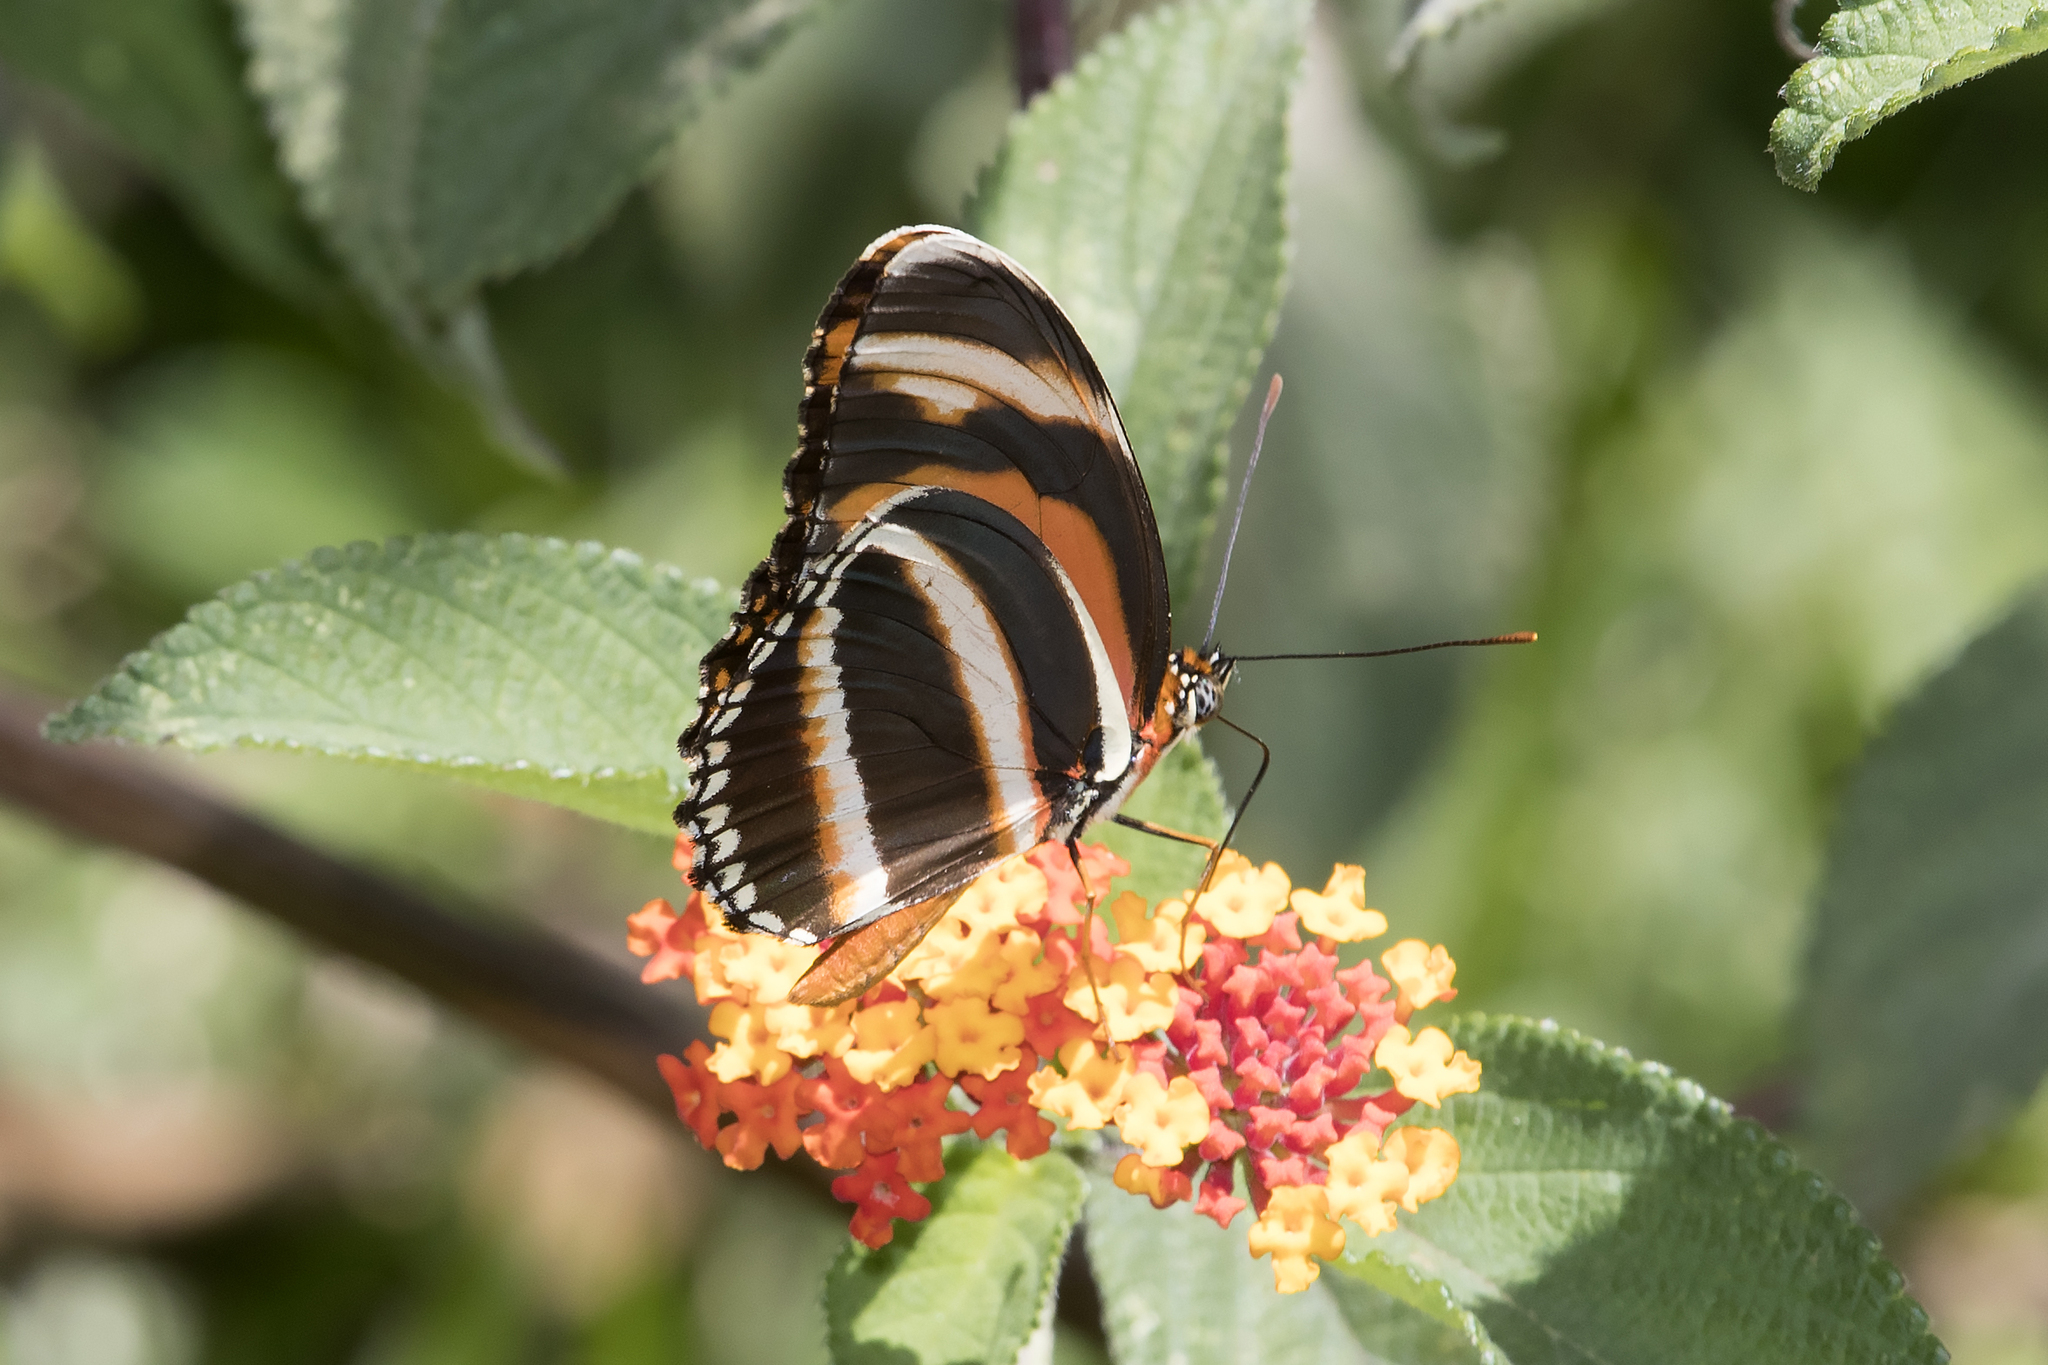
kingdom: Animalia
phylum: Arthropoda
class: Insecta
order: Lepidoptera
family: Nymphalidae
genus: Dryadula
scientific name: Dryadula phaetusa
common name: Banded orange heliconian
